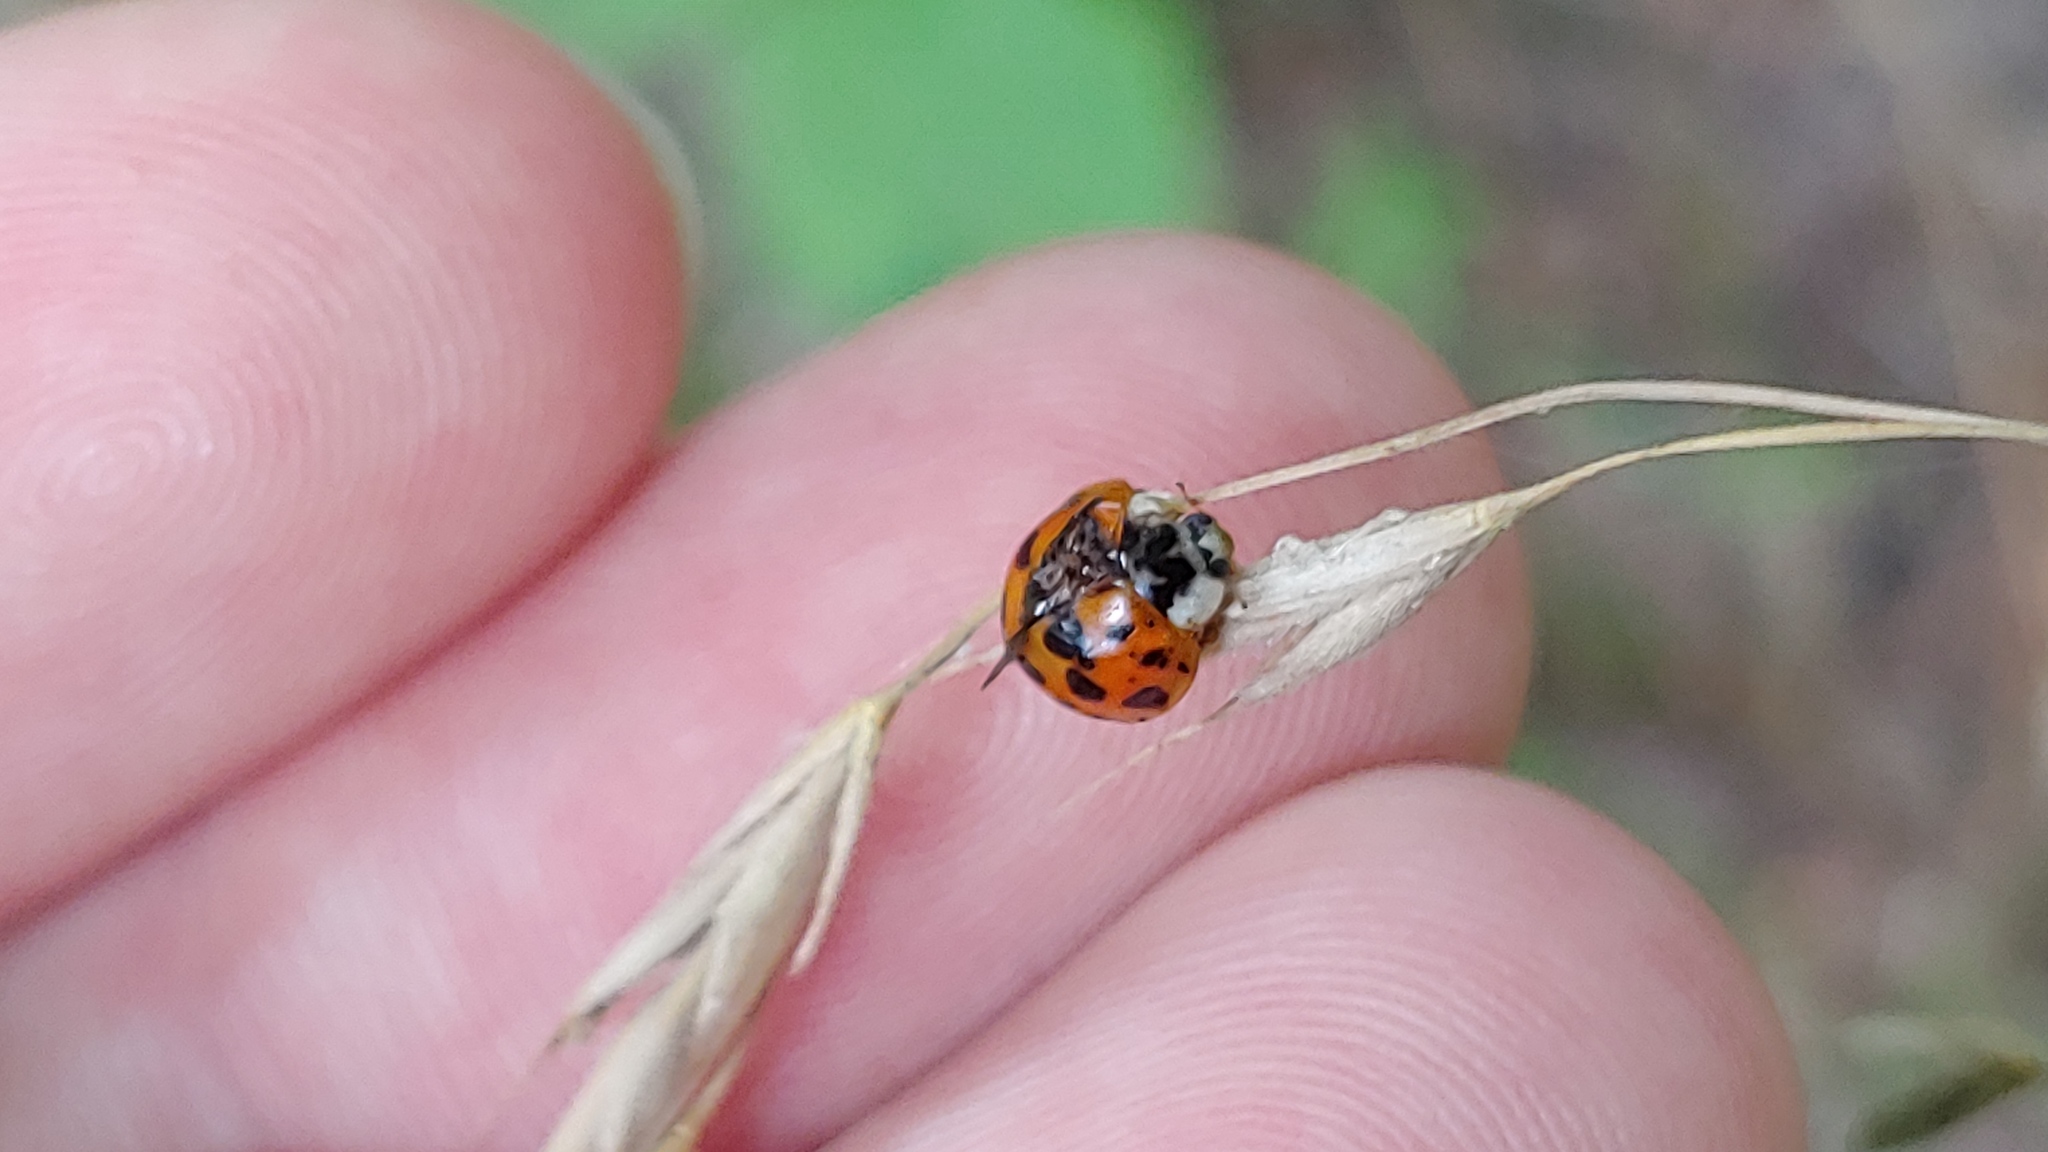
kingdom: Animalia
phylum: Arthropoda
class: Insecta
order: Coleoptera
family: Coccinellidae
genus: Harmonia
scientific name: Harmonia axyridis
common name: Harlequin ladybird
